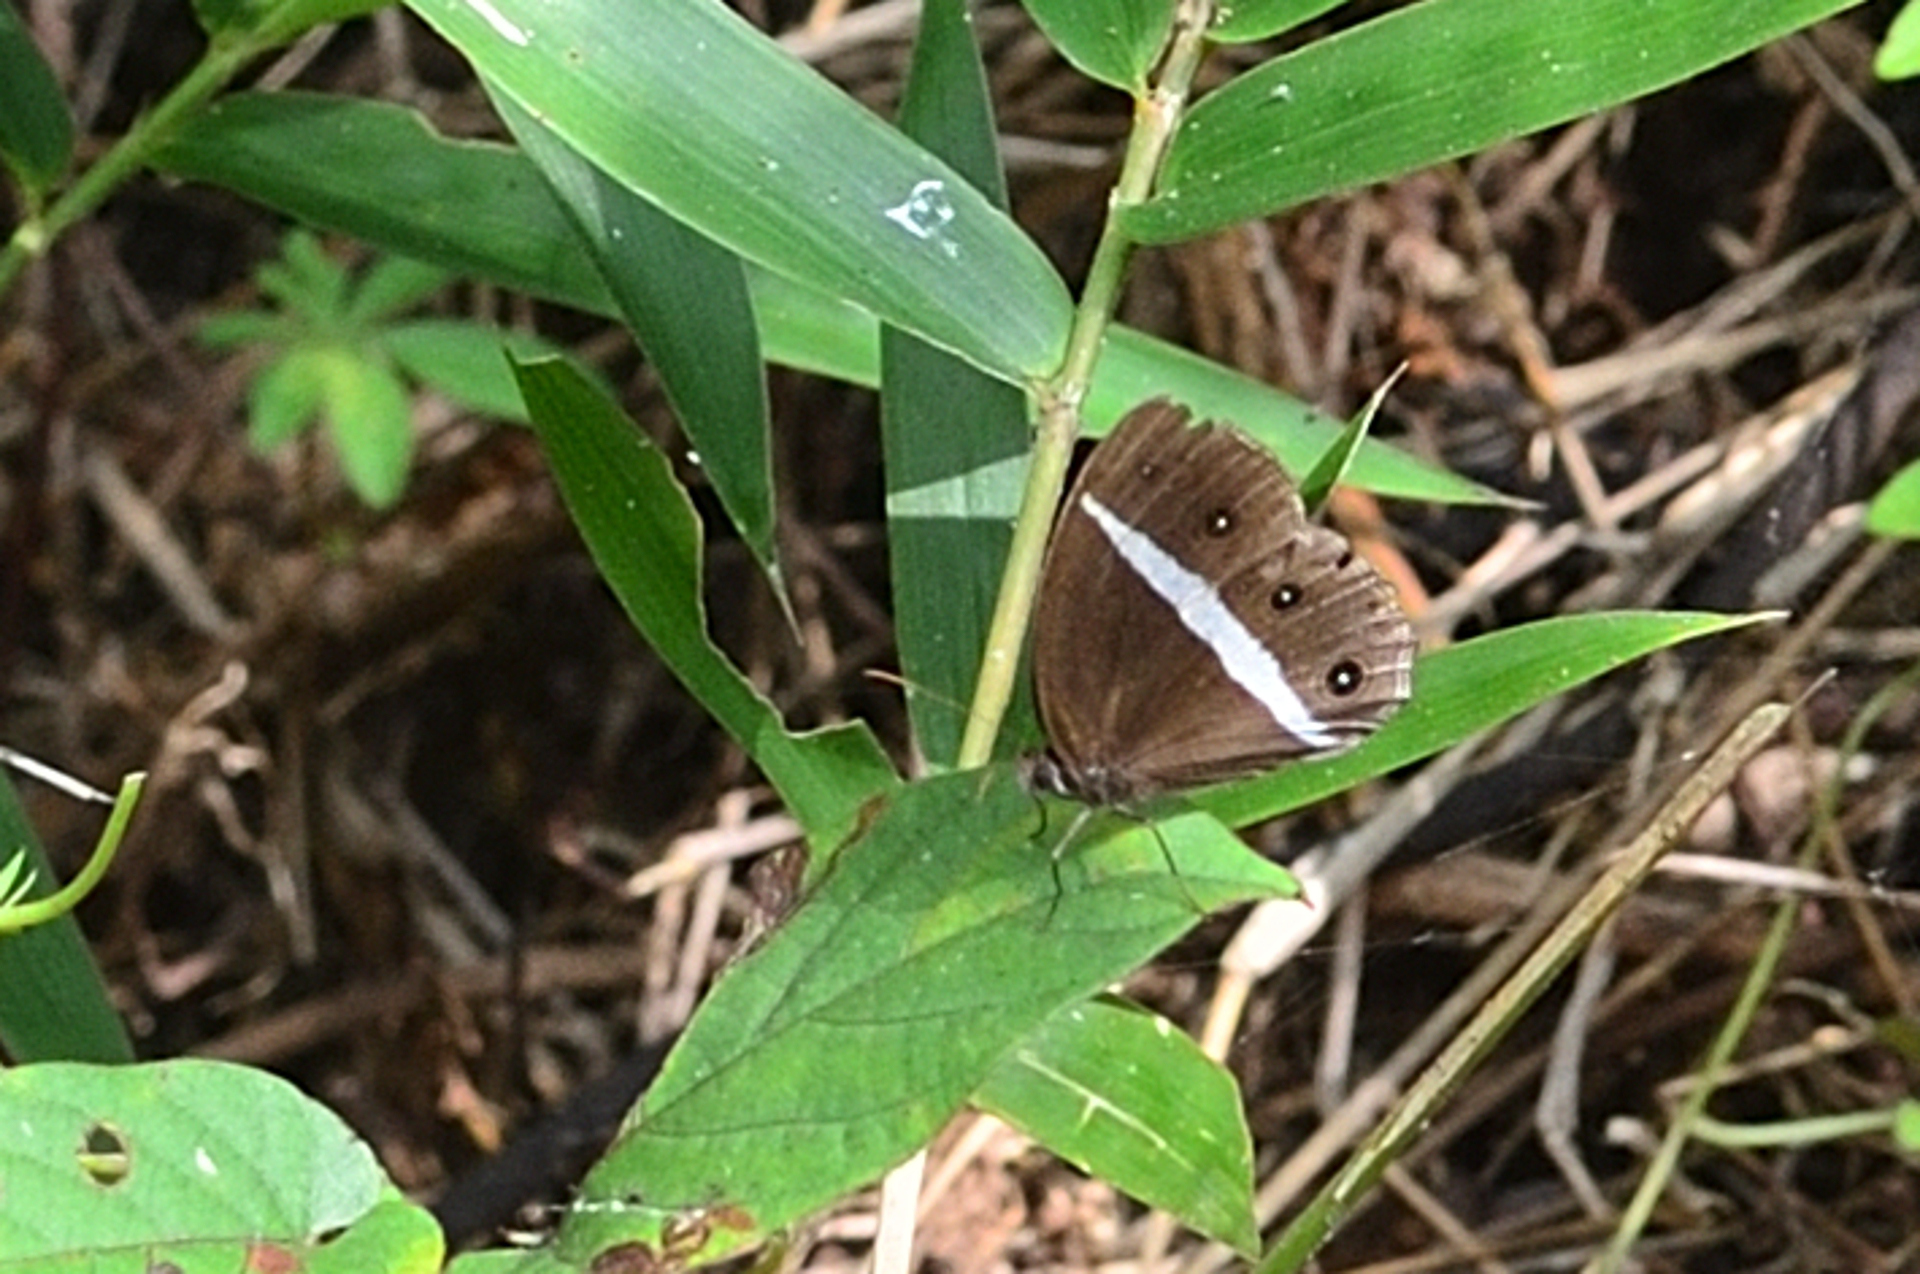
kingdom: Animalia
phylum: Arthropoda
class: Insecta
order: Lepidoptera
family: Nymphalidae
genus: Orsotriaena
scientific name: Orsotriaena medus
